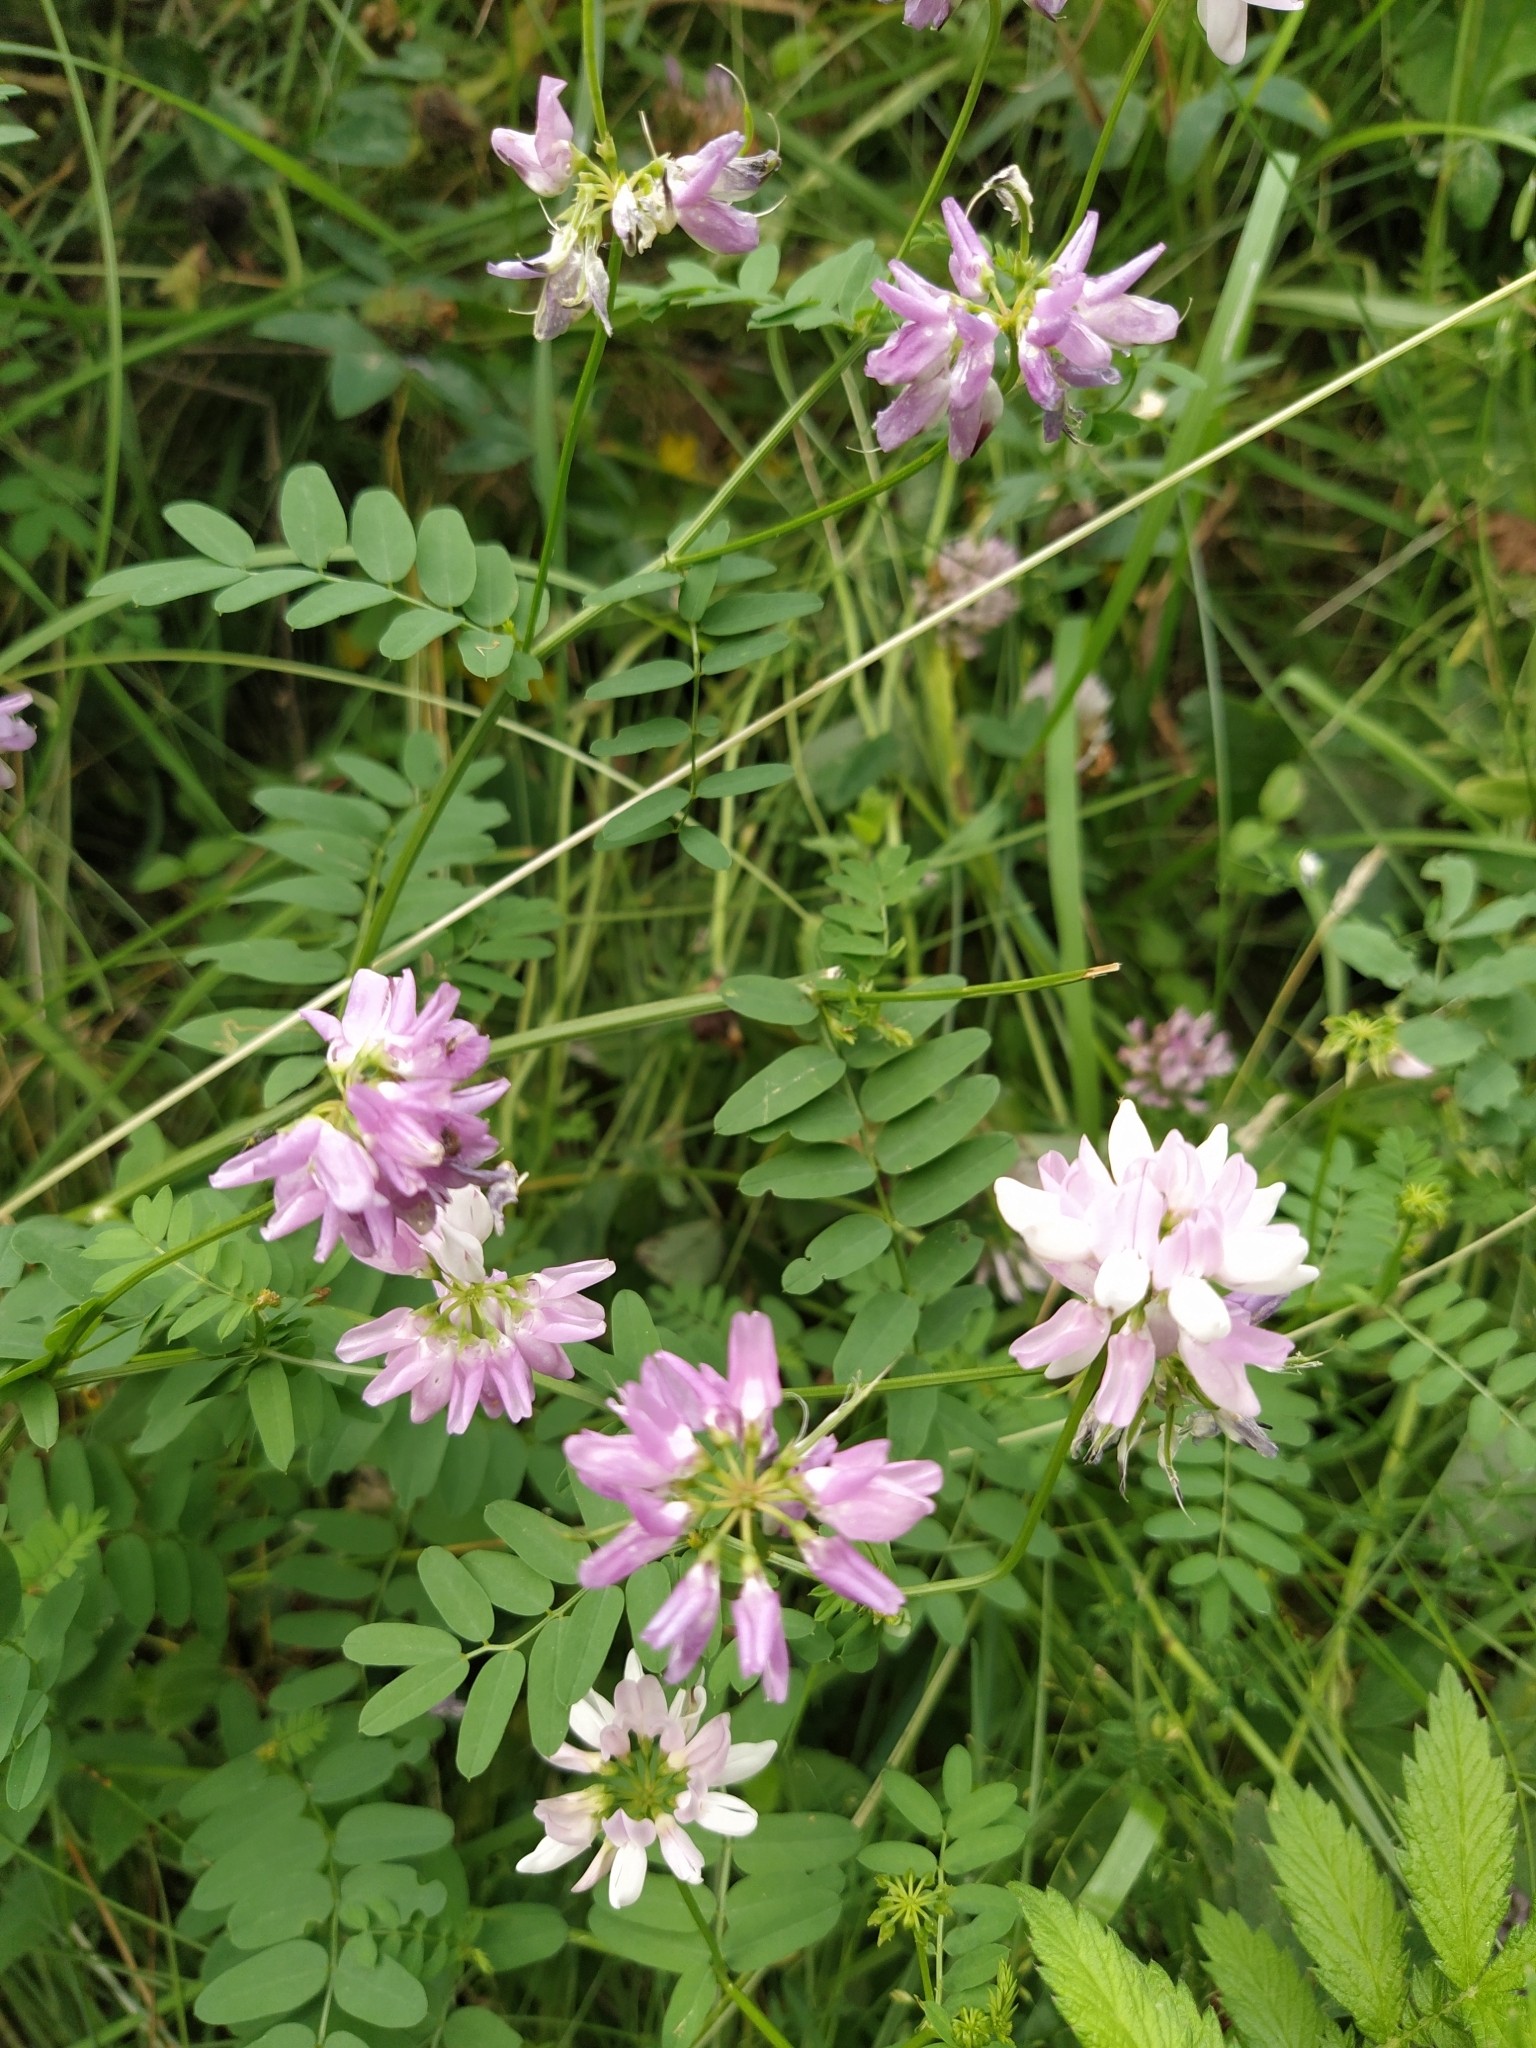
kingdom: Plantae
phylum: Tracheophyta
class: Magnoliopsida
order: Fabales
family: Fabaceae
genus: Coronilla
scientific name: Coronilla varia
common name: Crownvetch
